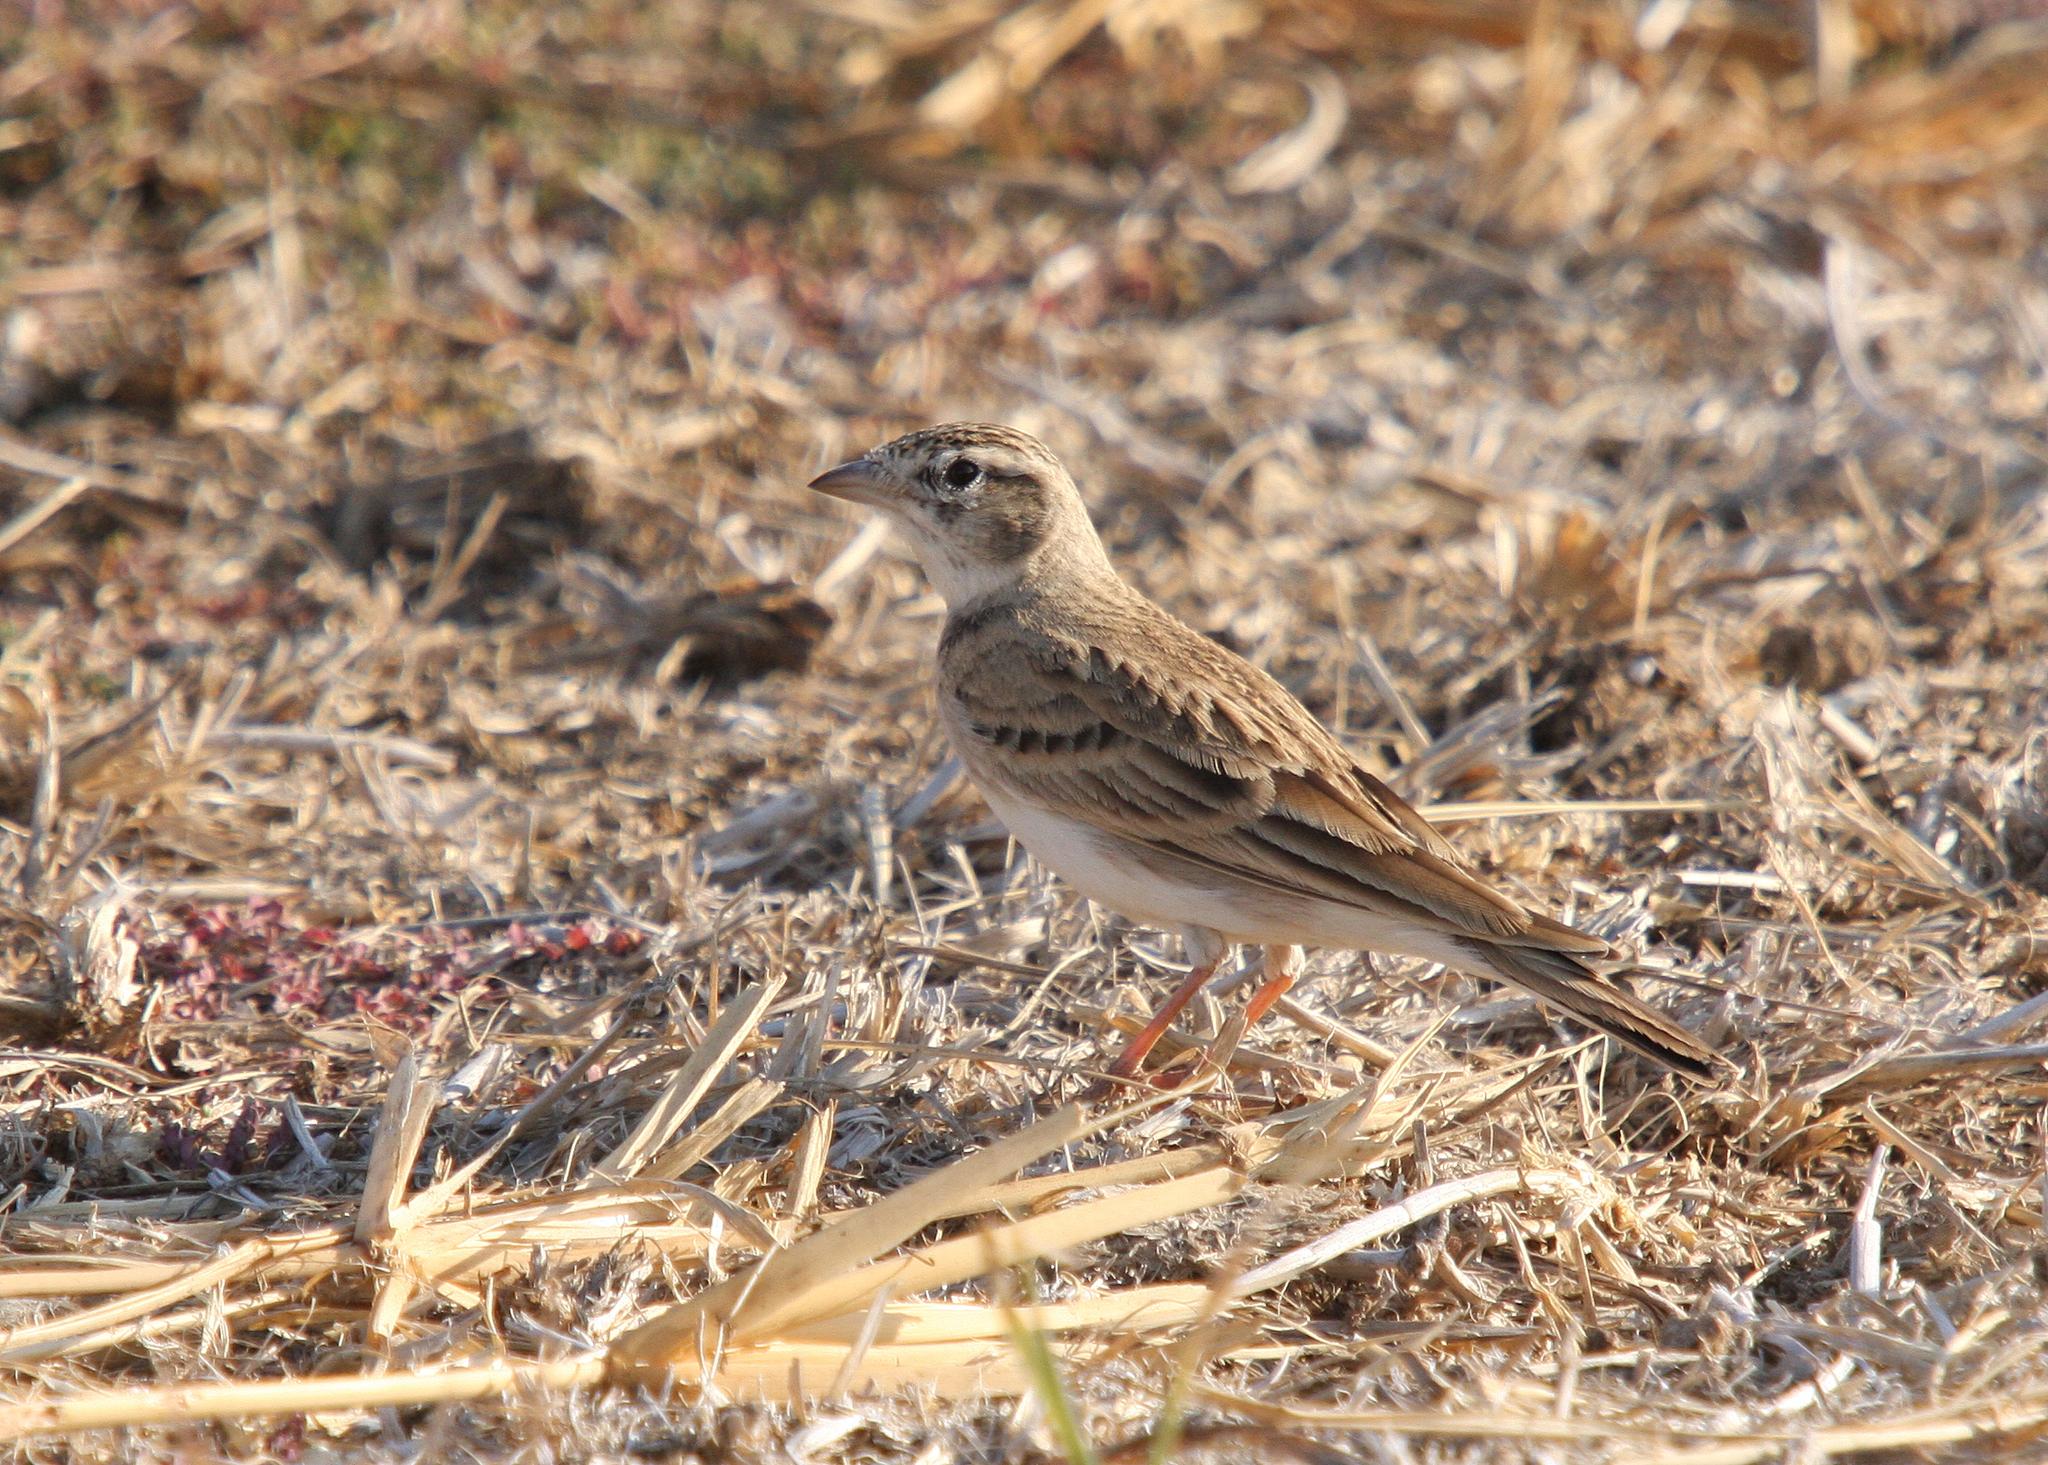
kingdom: Animalia
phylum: Chordata
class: Aves
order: Passeriformes
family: Alaudidae
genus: Calandrella
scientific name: Calandrella brachydactyla
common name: Greater short-toed lark
